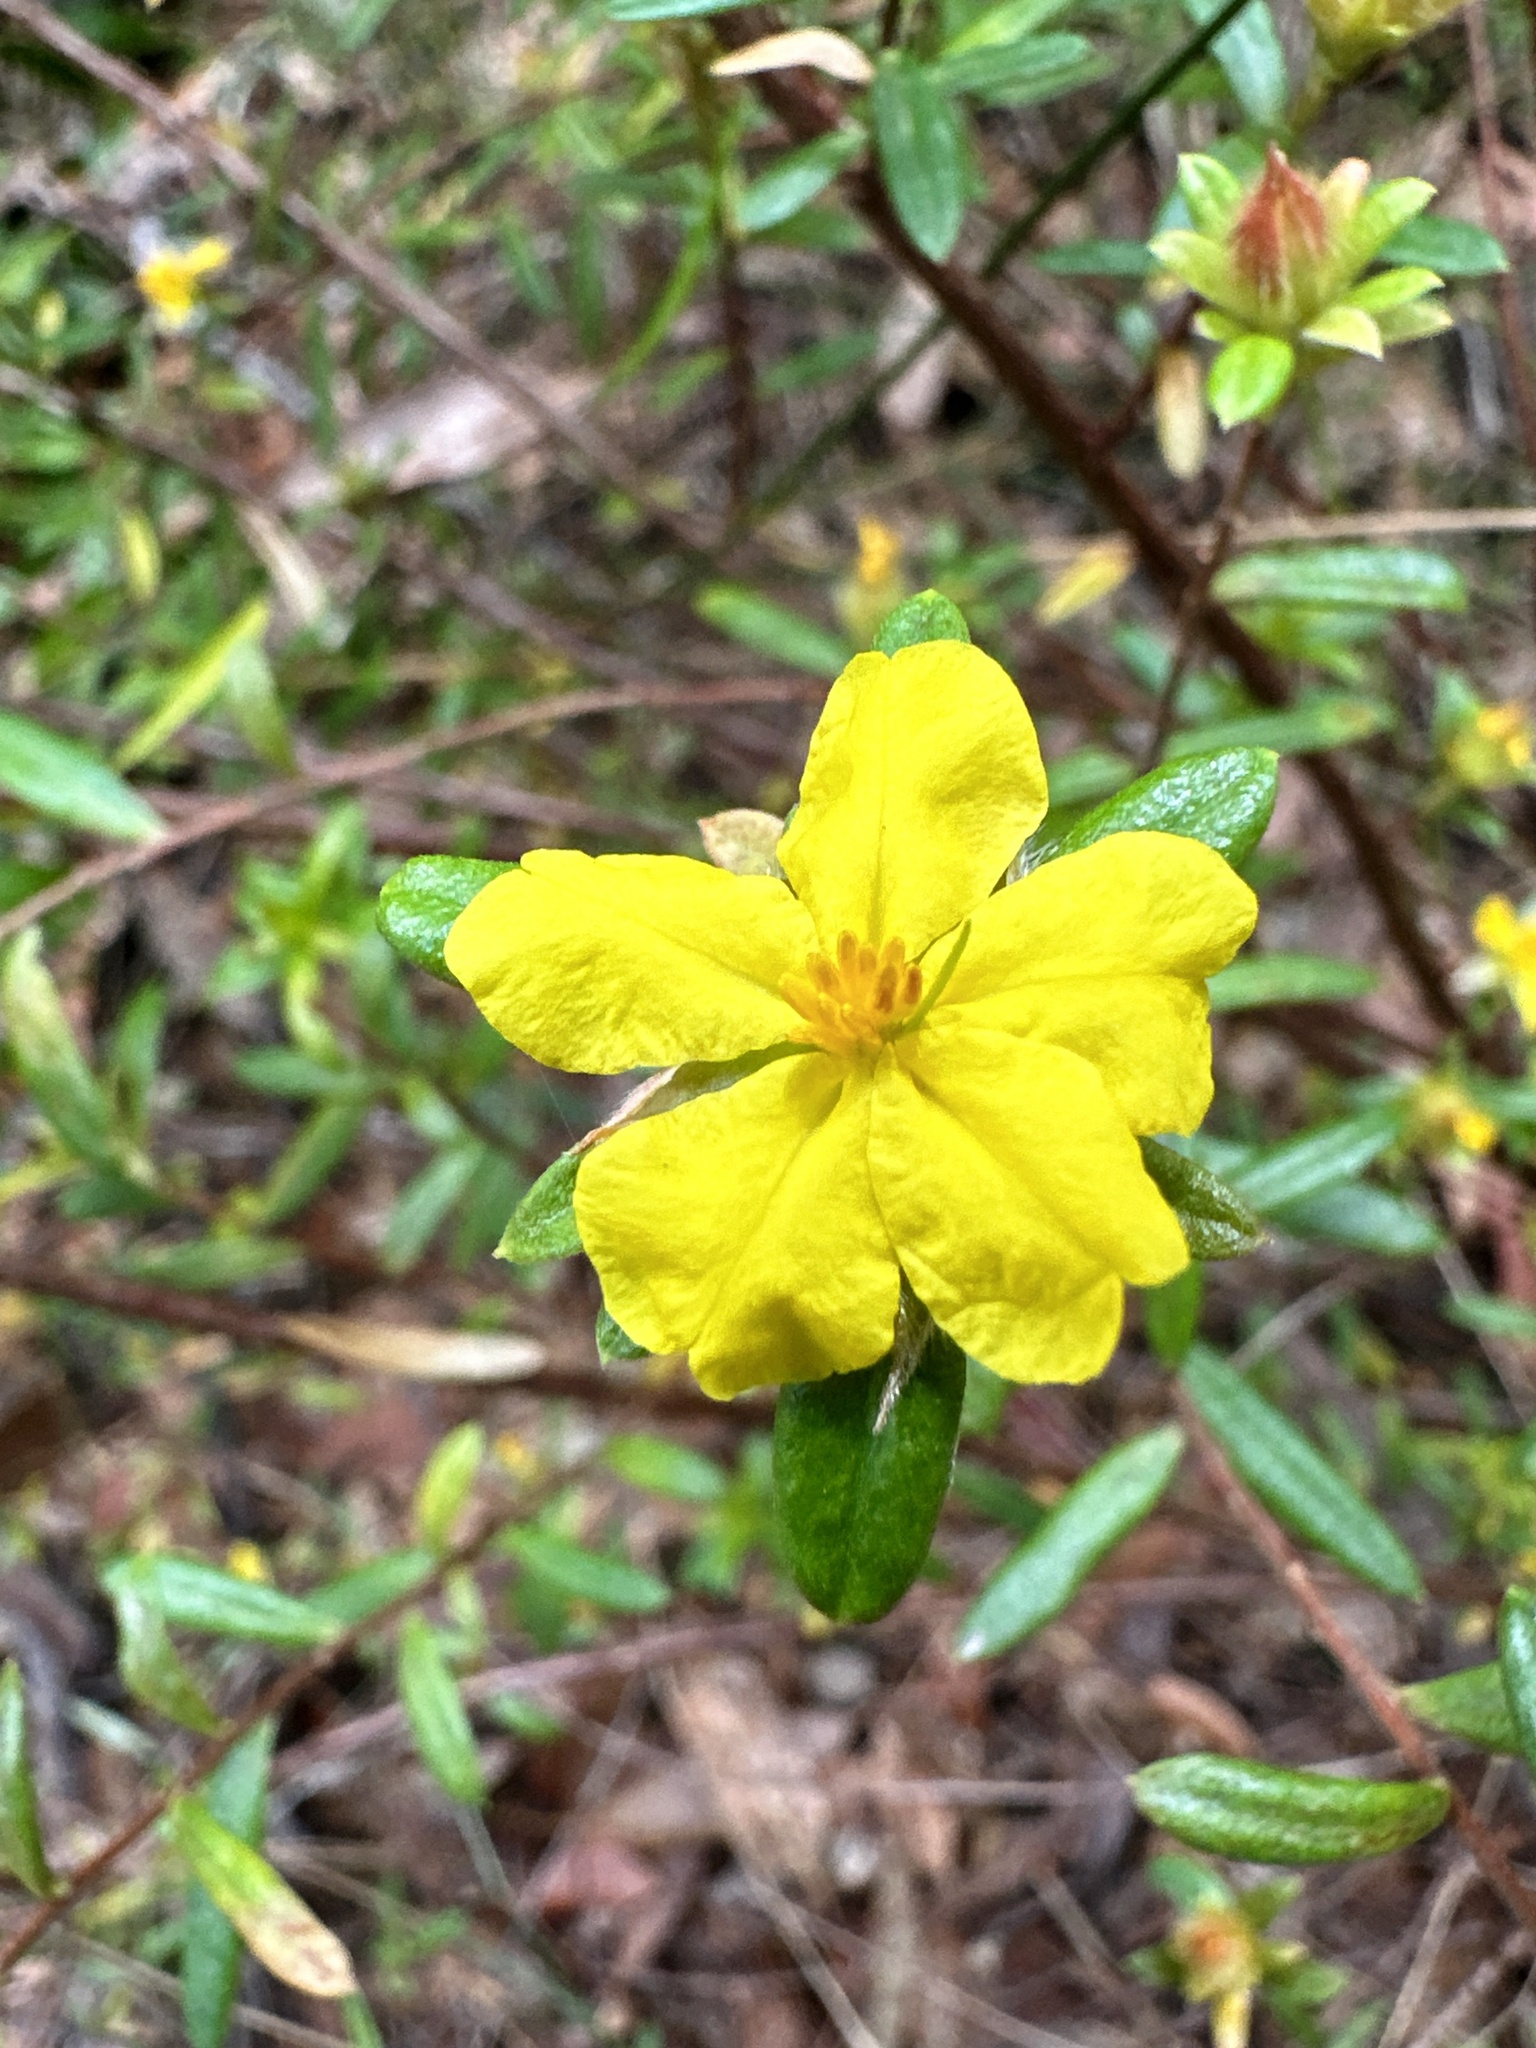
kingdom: Plantae
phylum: Tracheophyta
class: Magnoliopsida
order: Dilleniales
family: Dilleniaceae
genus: Hibbertia
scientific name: Hibbertia bracteata
